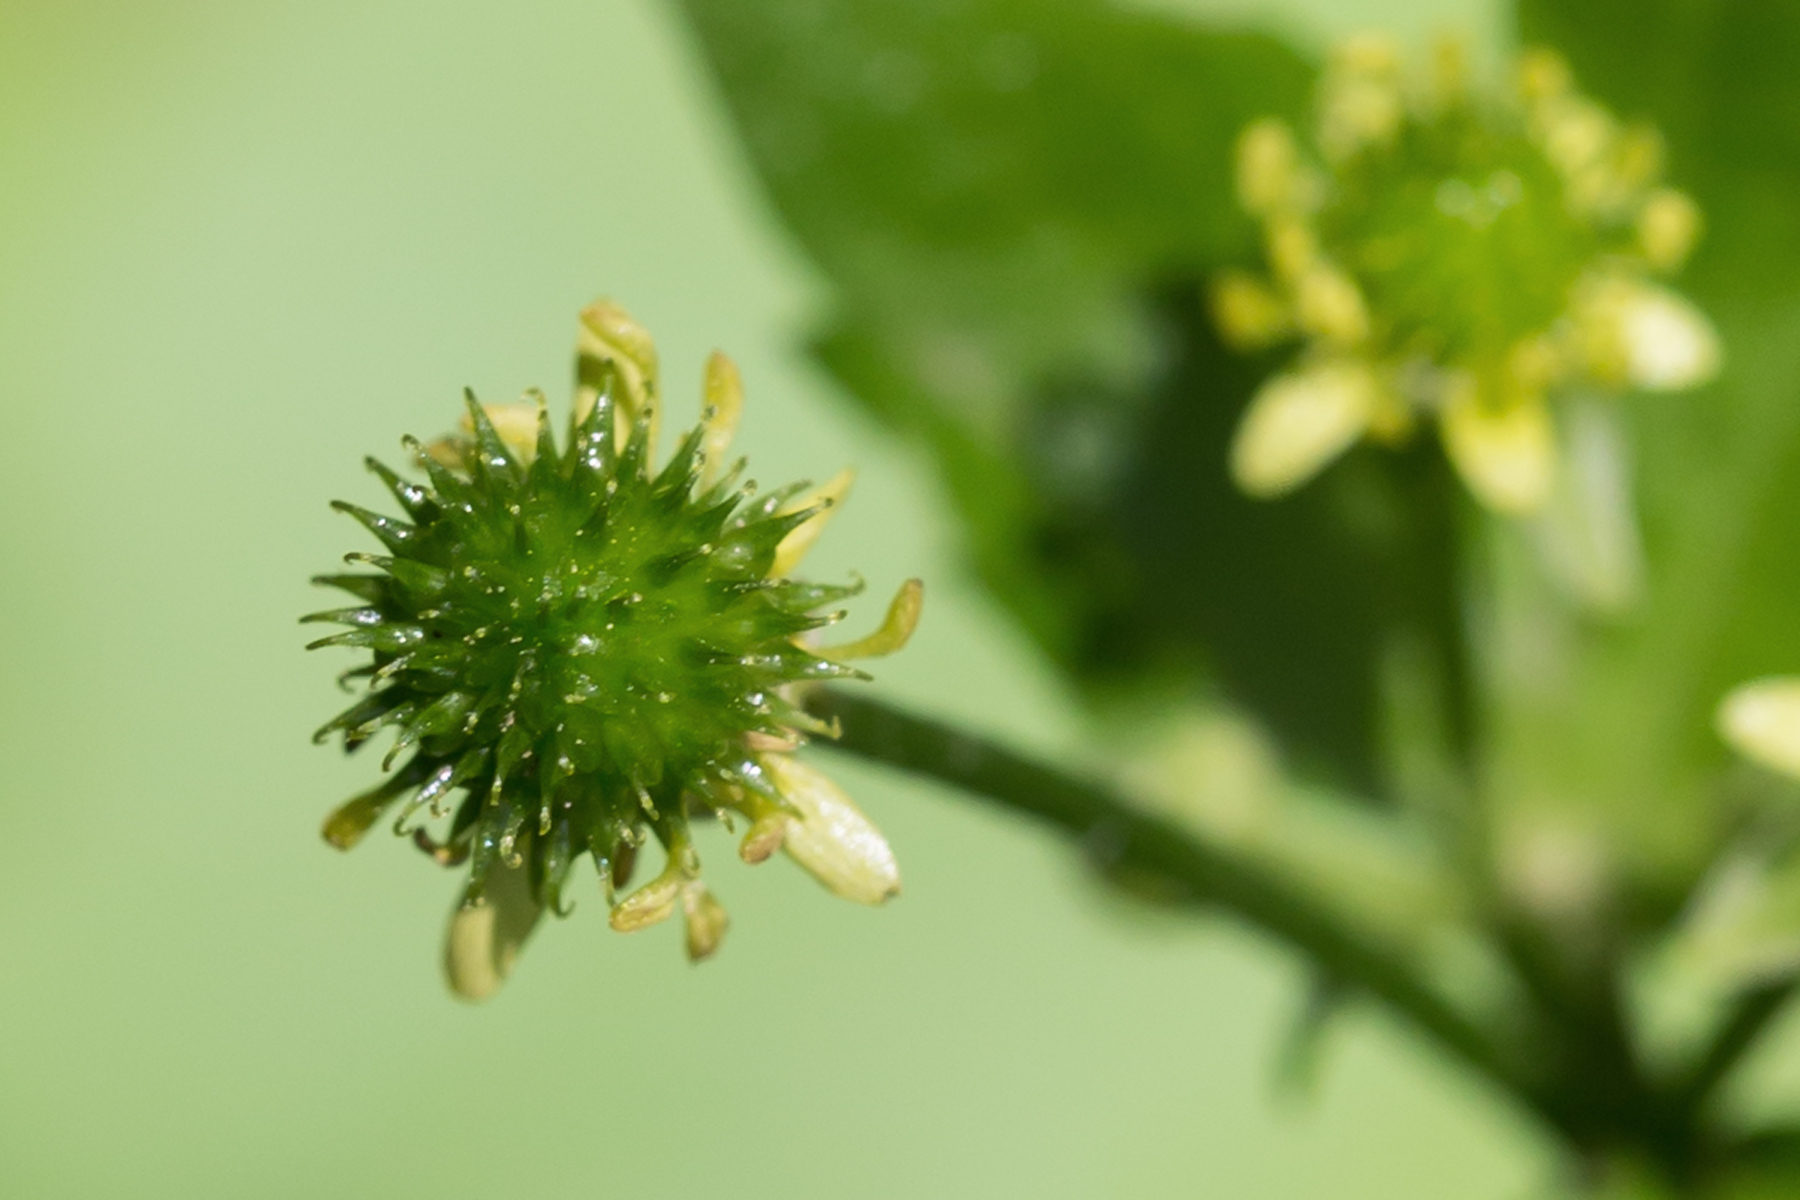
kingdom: Plantae
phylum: Tracheophyta
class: Magnoliopsida
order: Ranunculales
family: Ranunculaceae
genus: Ranunculus
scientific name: Ranunculus recurvatus
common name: Blisterwort
